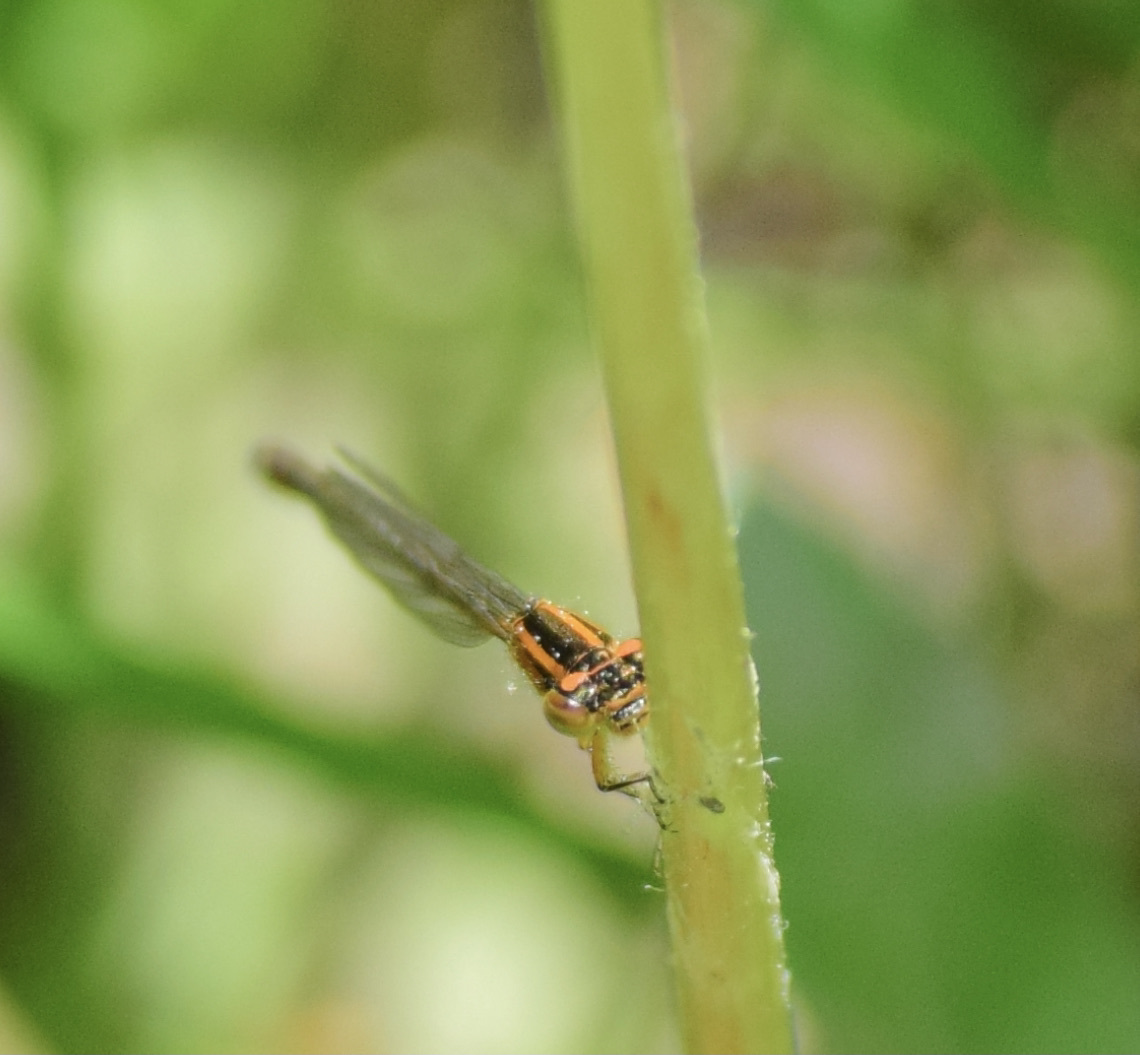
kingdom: Animalia
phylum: Arthropoda
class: Insecta
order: Odonata
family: Coenagrionidae
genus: Ischnura
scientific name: Ischnura verticalis
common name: Eastern forktail
